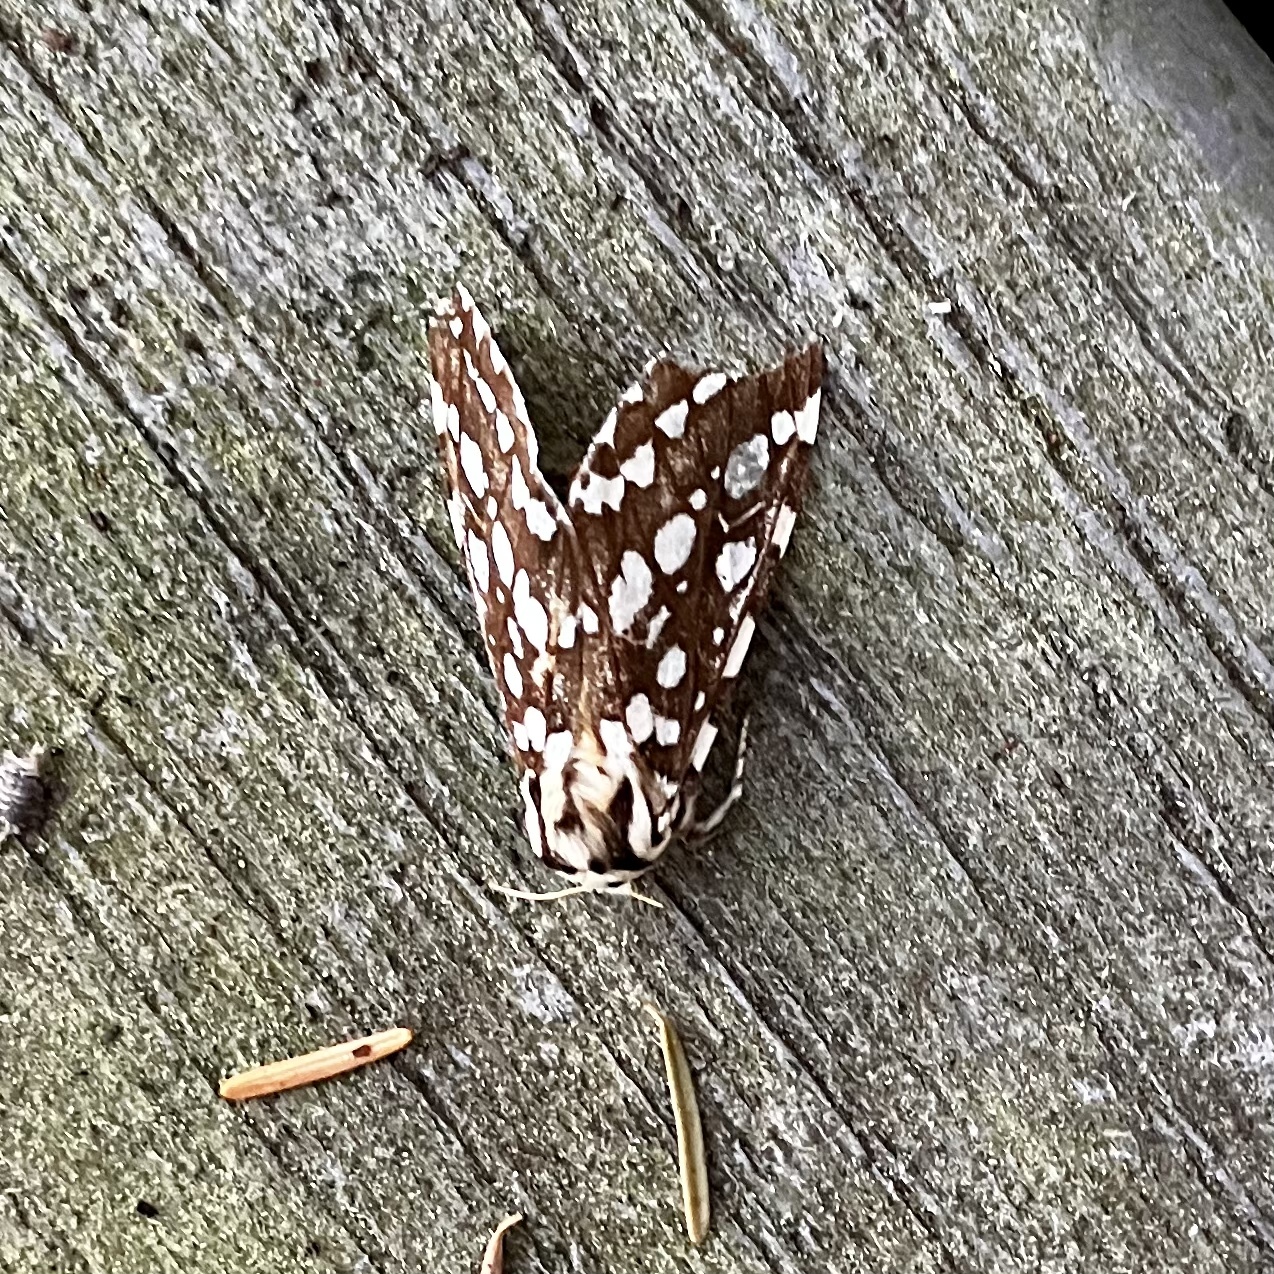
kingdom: Animalia
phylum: Arthropoda
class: Insecta
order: Lepidoptera
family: Erebidae
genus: Lophocampa
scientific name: Lophocampa argentata
